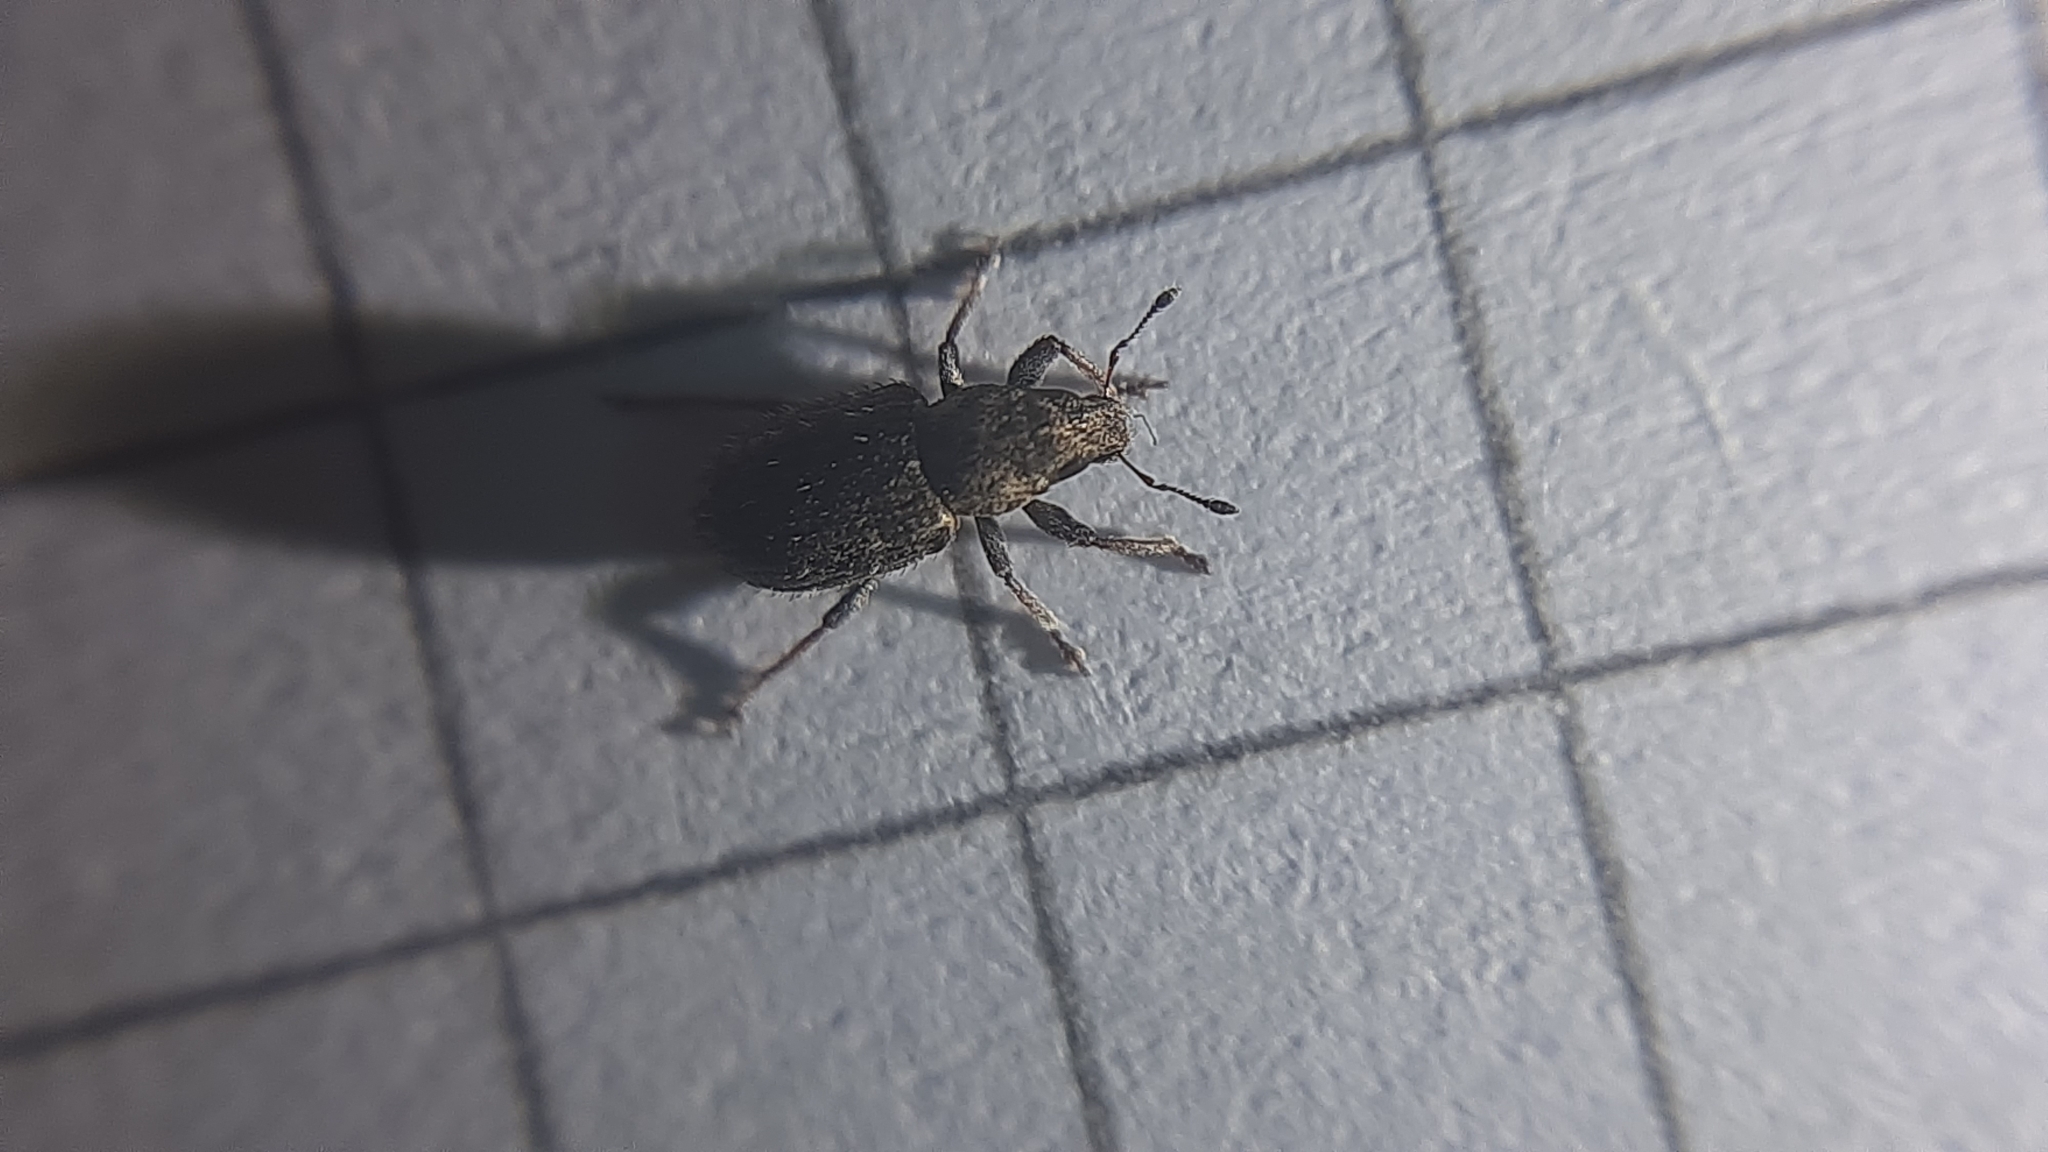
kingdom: Animalia
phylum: Arthropoda
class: Insecta
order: Coleoptera
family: Curculionidae
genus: Sitona
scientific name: Sitona hispidulus
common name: Clover weevil
